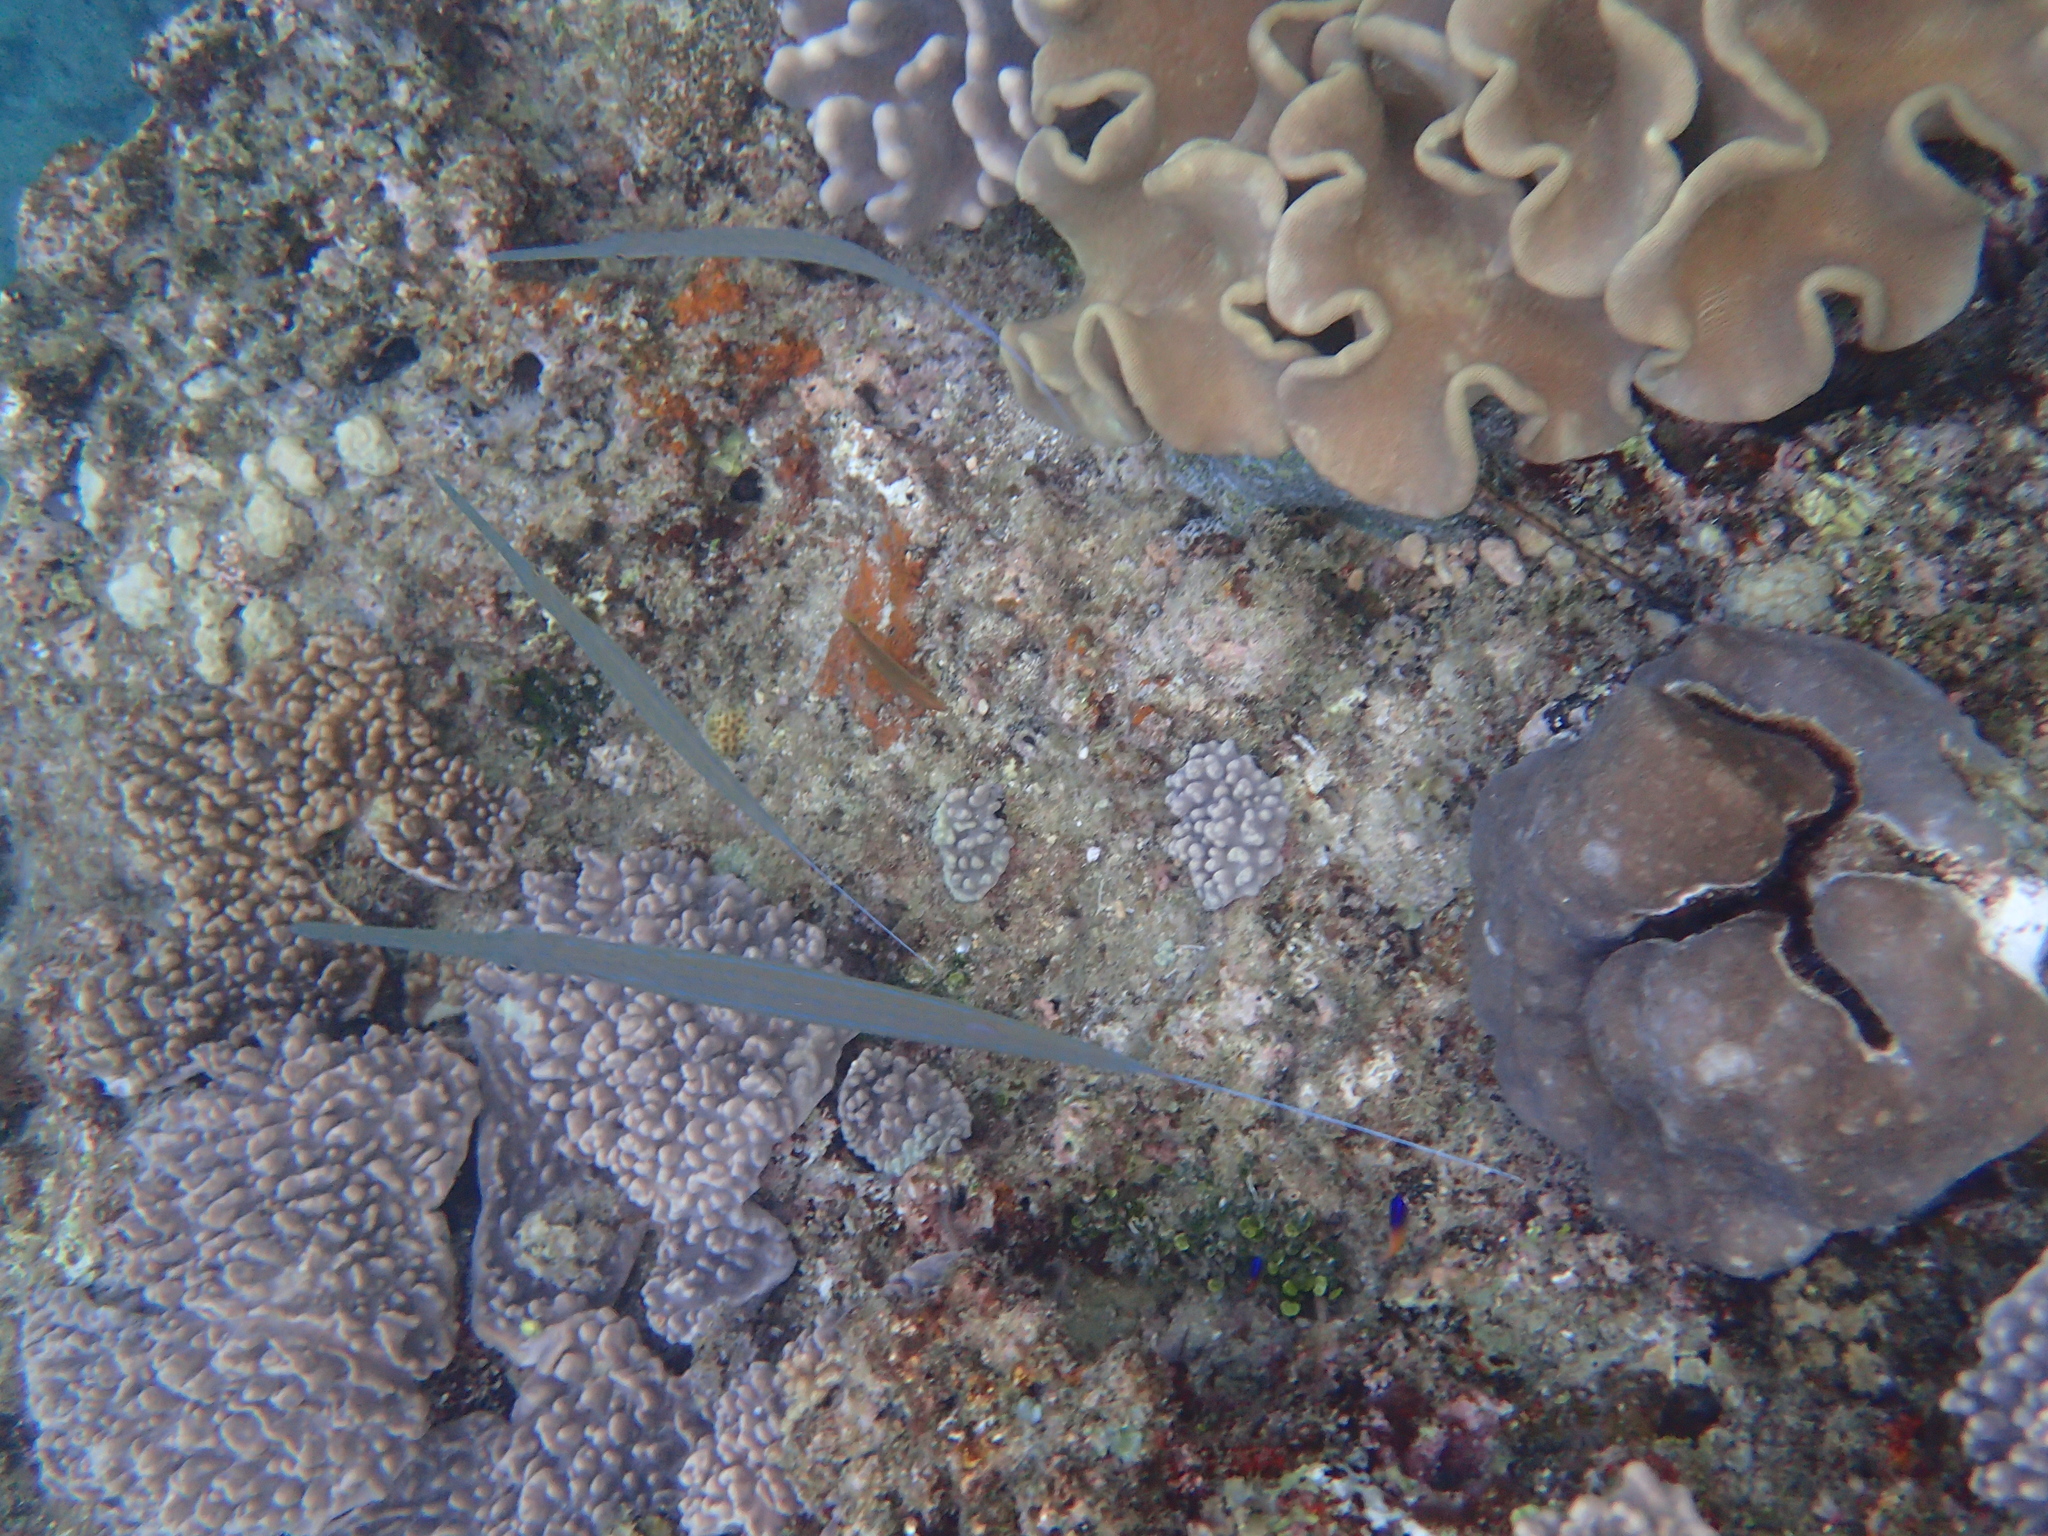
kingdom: Animalia
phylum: Chordata
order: Syngnathiformes
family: Fistulariidae
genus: Fistularia
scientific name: Fistularia commersonii
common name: Bluespotted cornetfish
